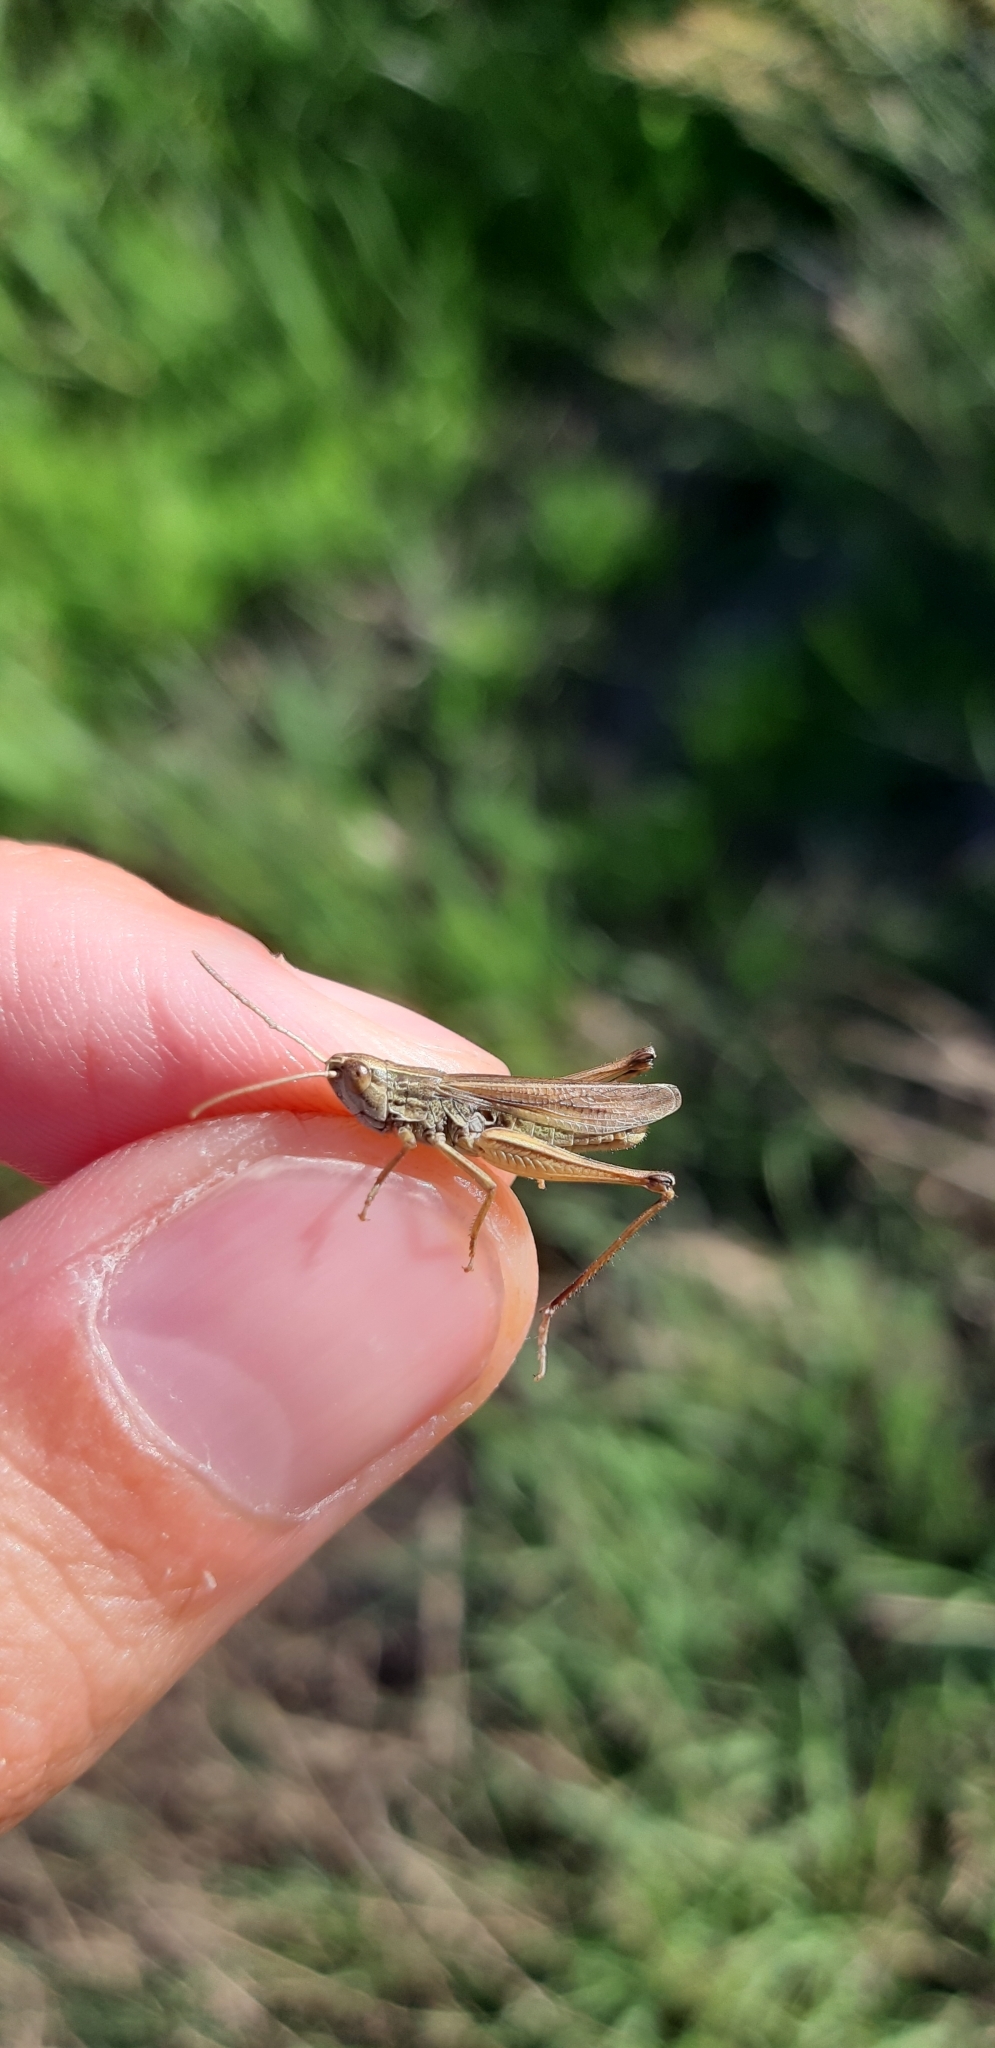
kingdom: Animalia
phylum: Arthropoda
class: Insecta
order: Orthoptera
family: Acrididae
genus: Chorthippus
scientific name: Chorthippus albomarginatus
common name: Lesser marsh grasshopper
